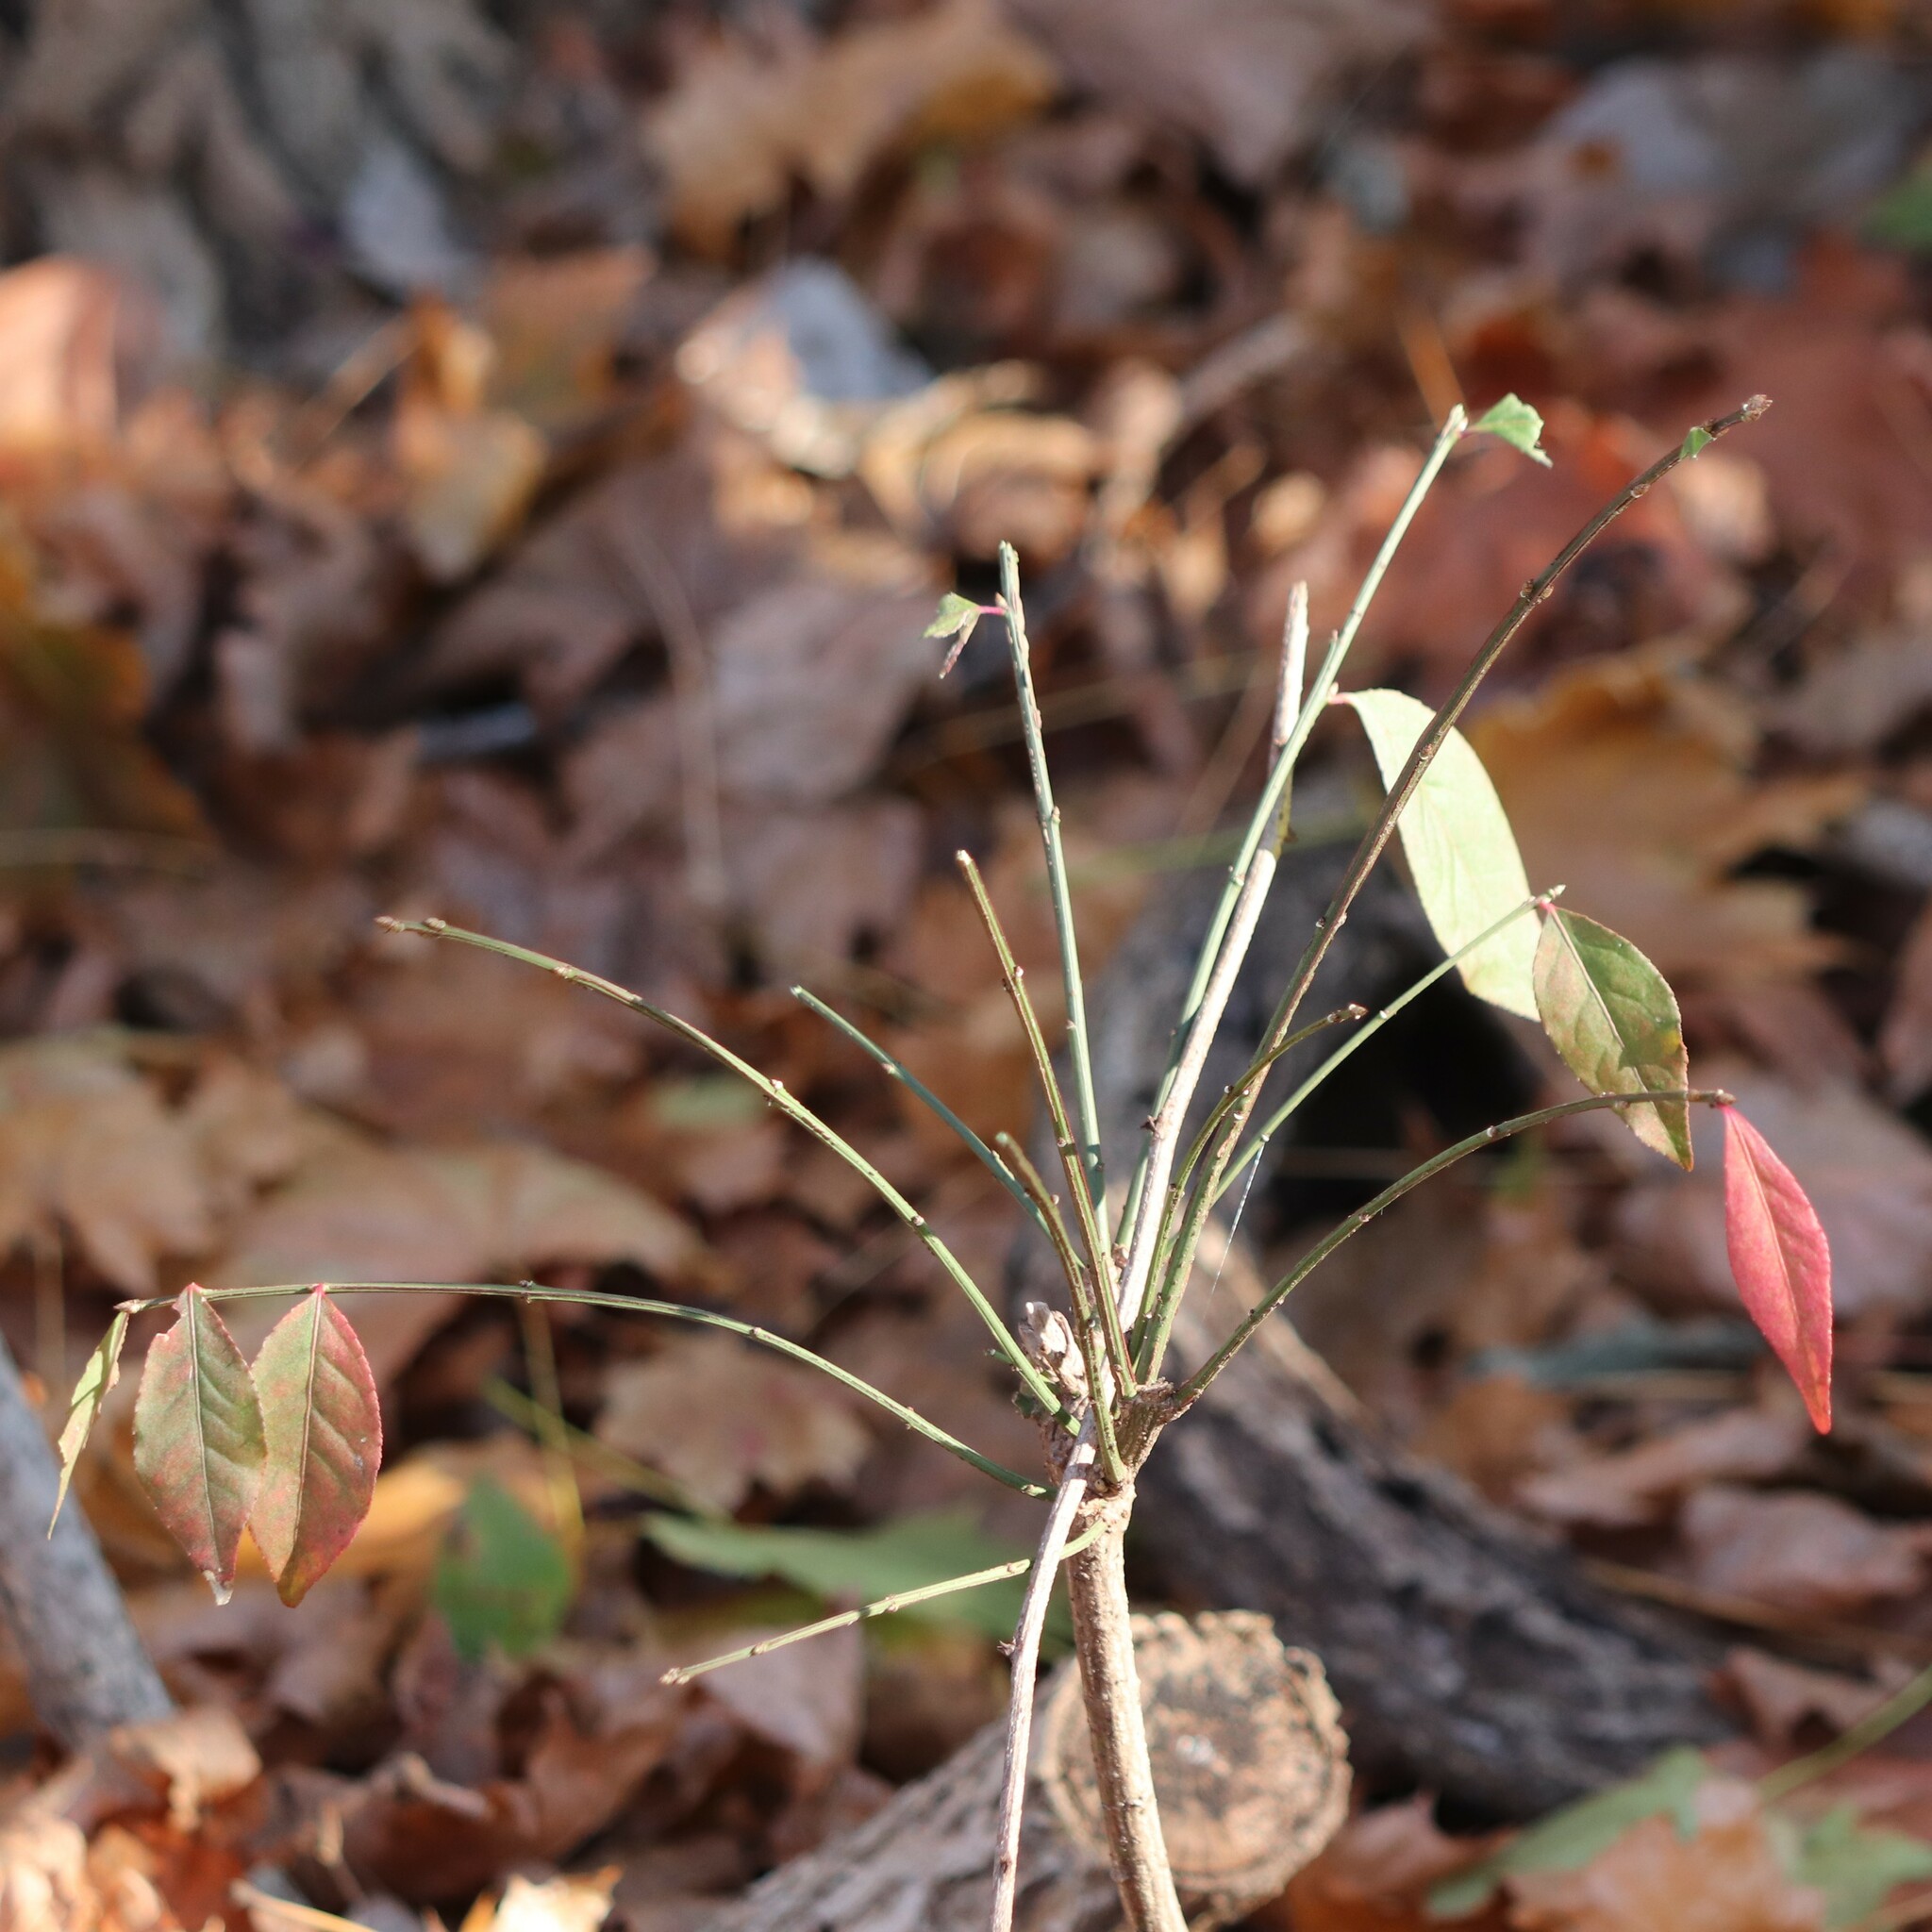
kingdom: Plantae
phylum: Tracheophyta
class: Magnoliopsida
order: Celastrales
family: Celastraceae
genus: Euonymus
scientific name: Euonymus alatus
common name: Winged euonymus
